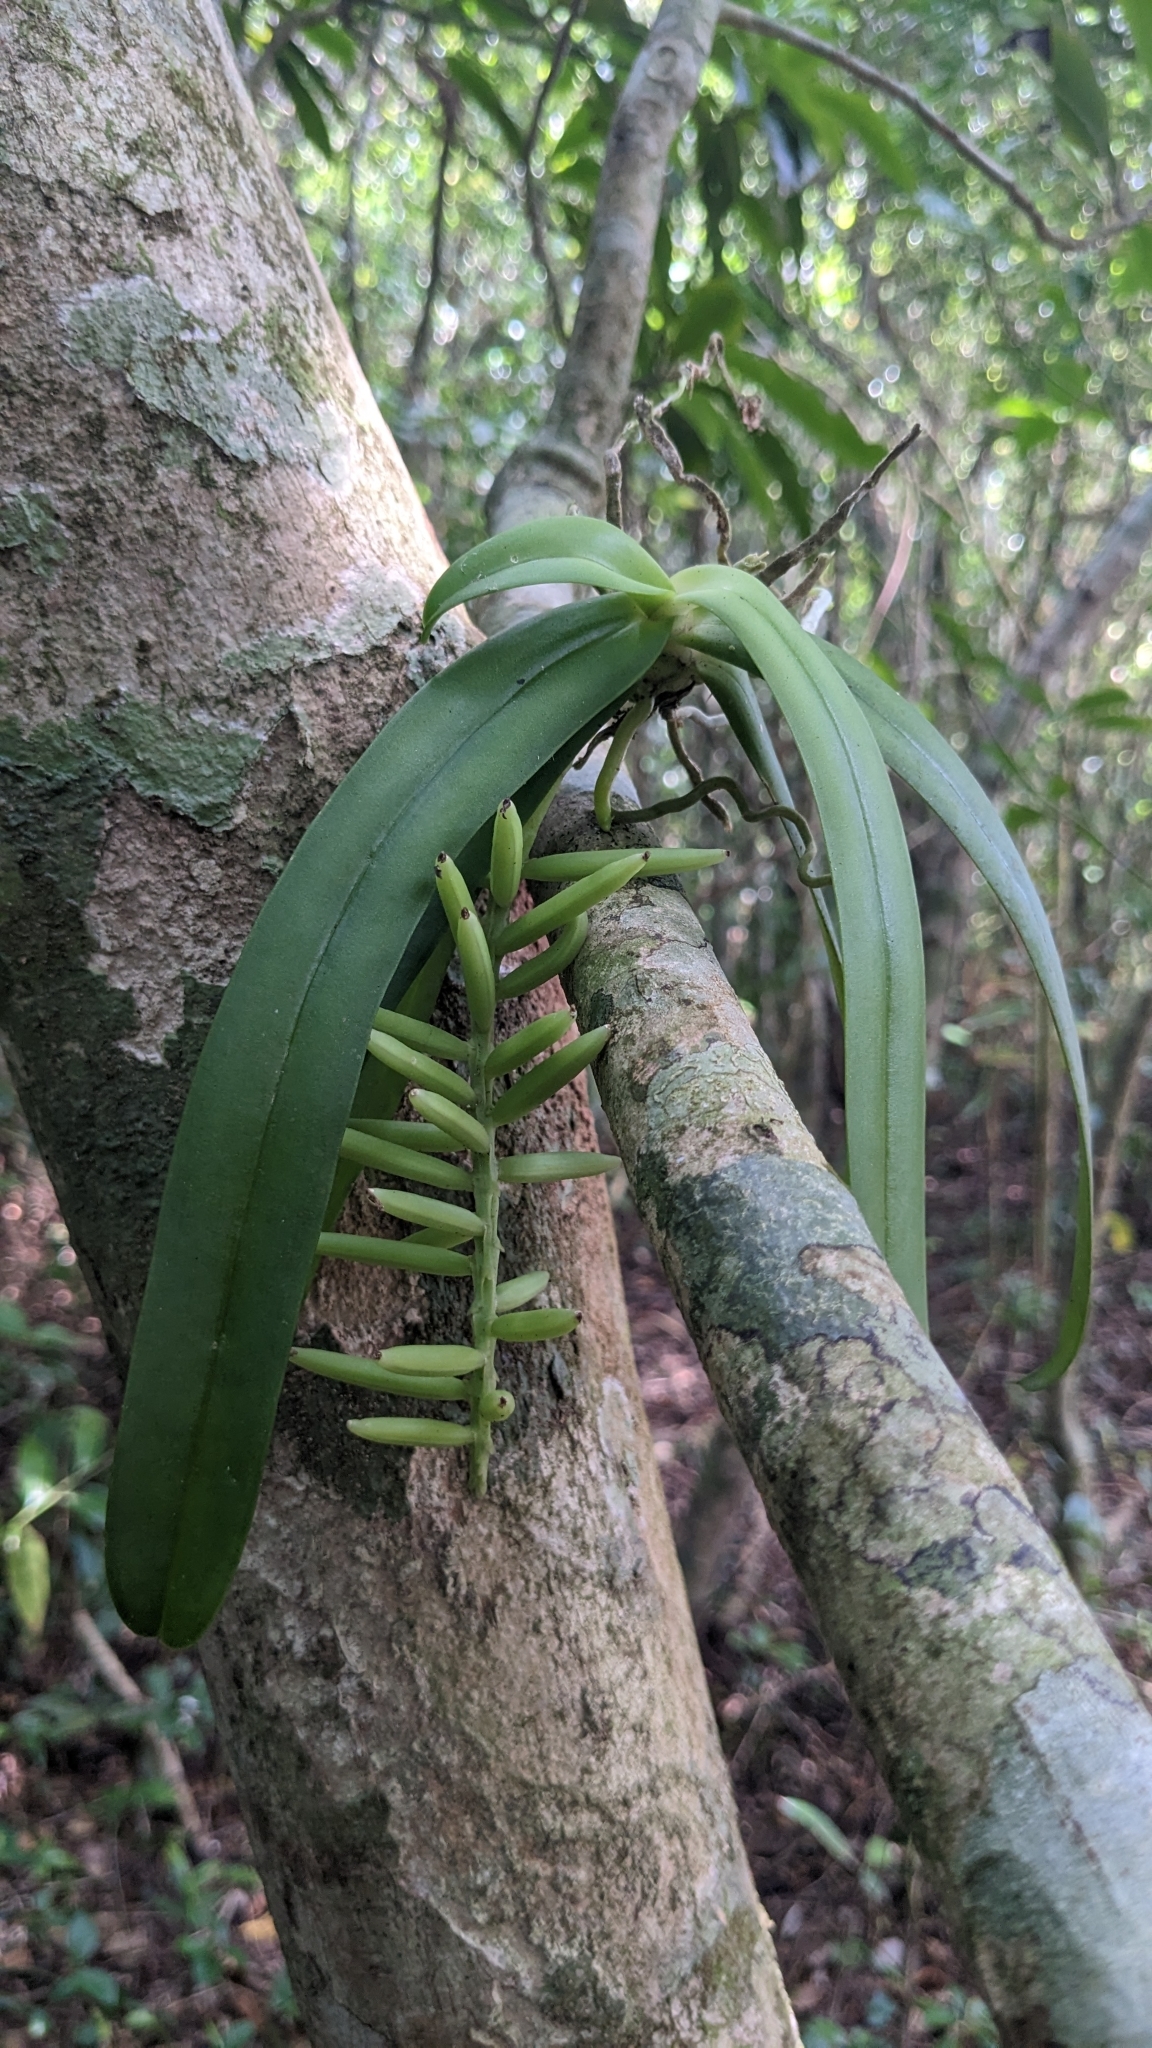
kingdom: Plantae
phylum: Tracheophyta
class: Liliopsida
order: Asparagales
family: Orchidaceae
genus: Tuberolabium
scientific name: Tuberolabium kotoense
